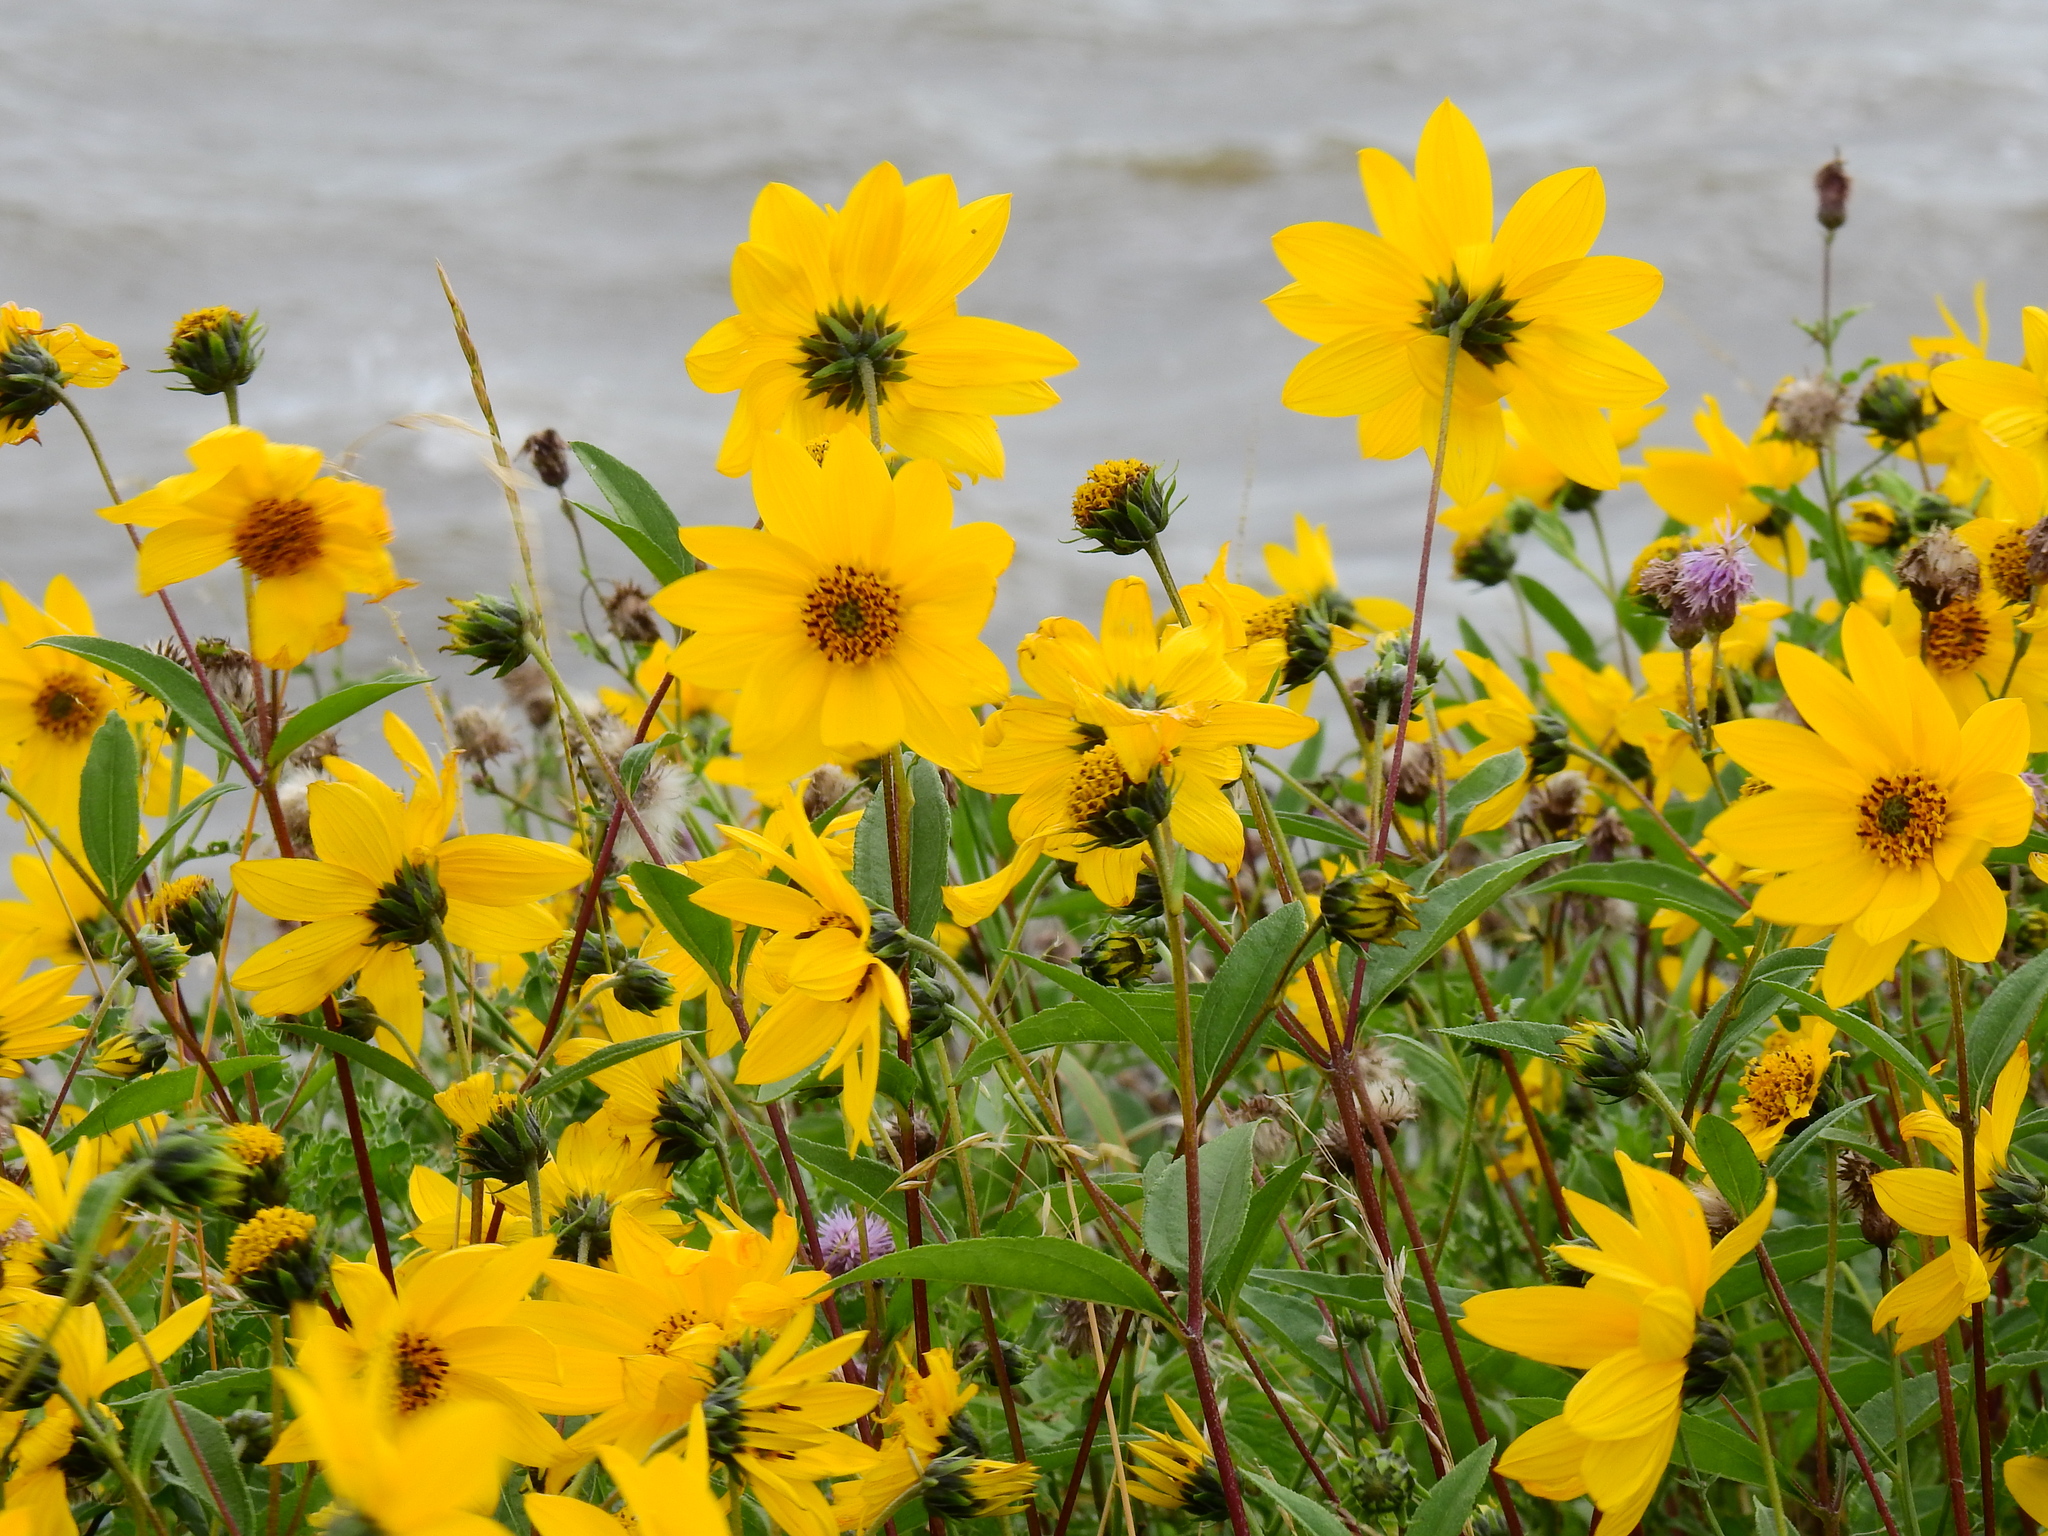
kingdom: Plantae
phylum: Tracheophyta
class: Magnoliopsida
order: Asterales
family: Asteraceae
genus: Helianthus
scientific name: Helianthus tuberosus
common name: Jerusalem artichoke
